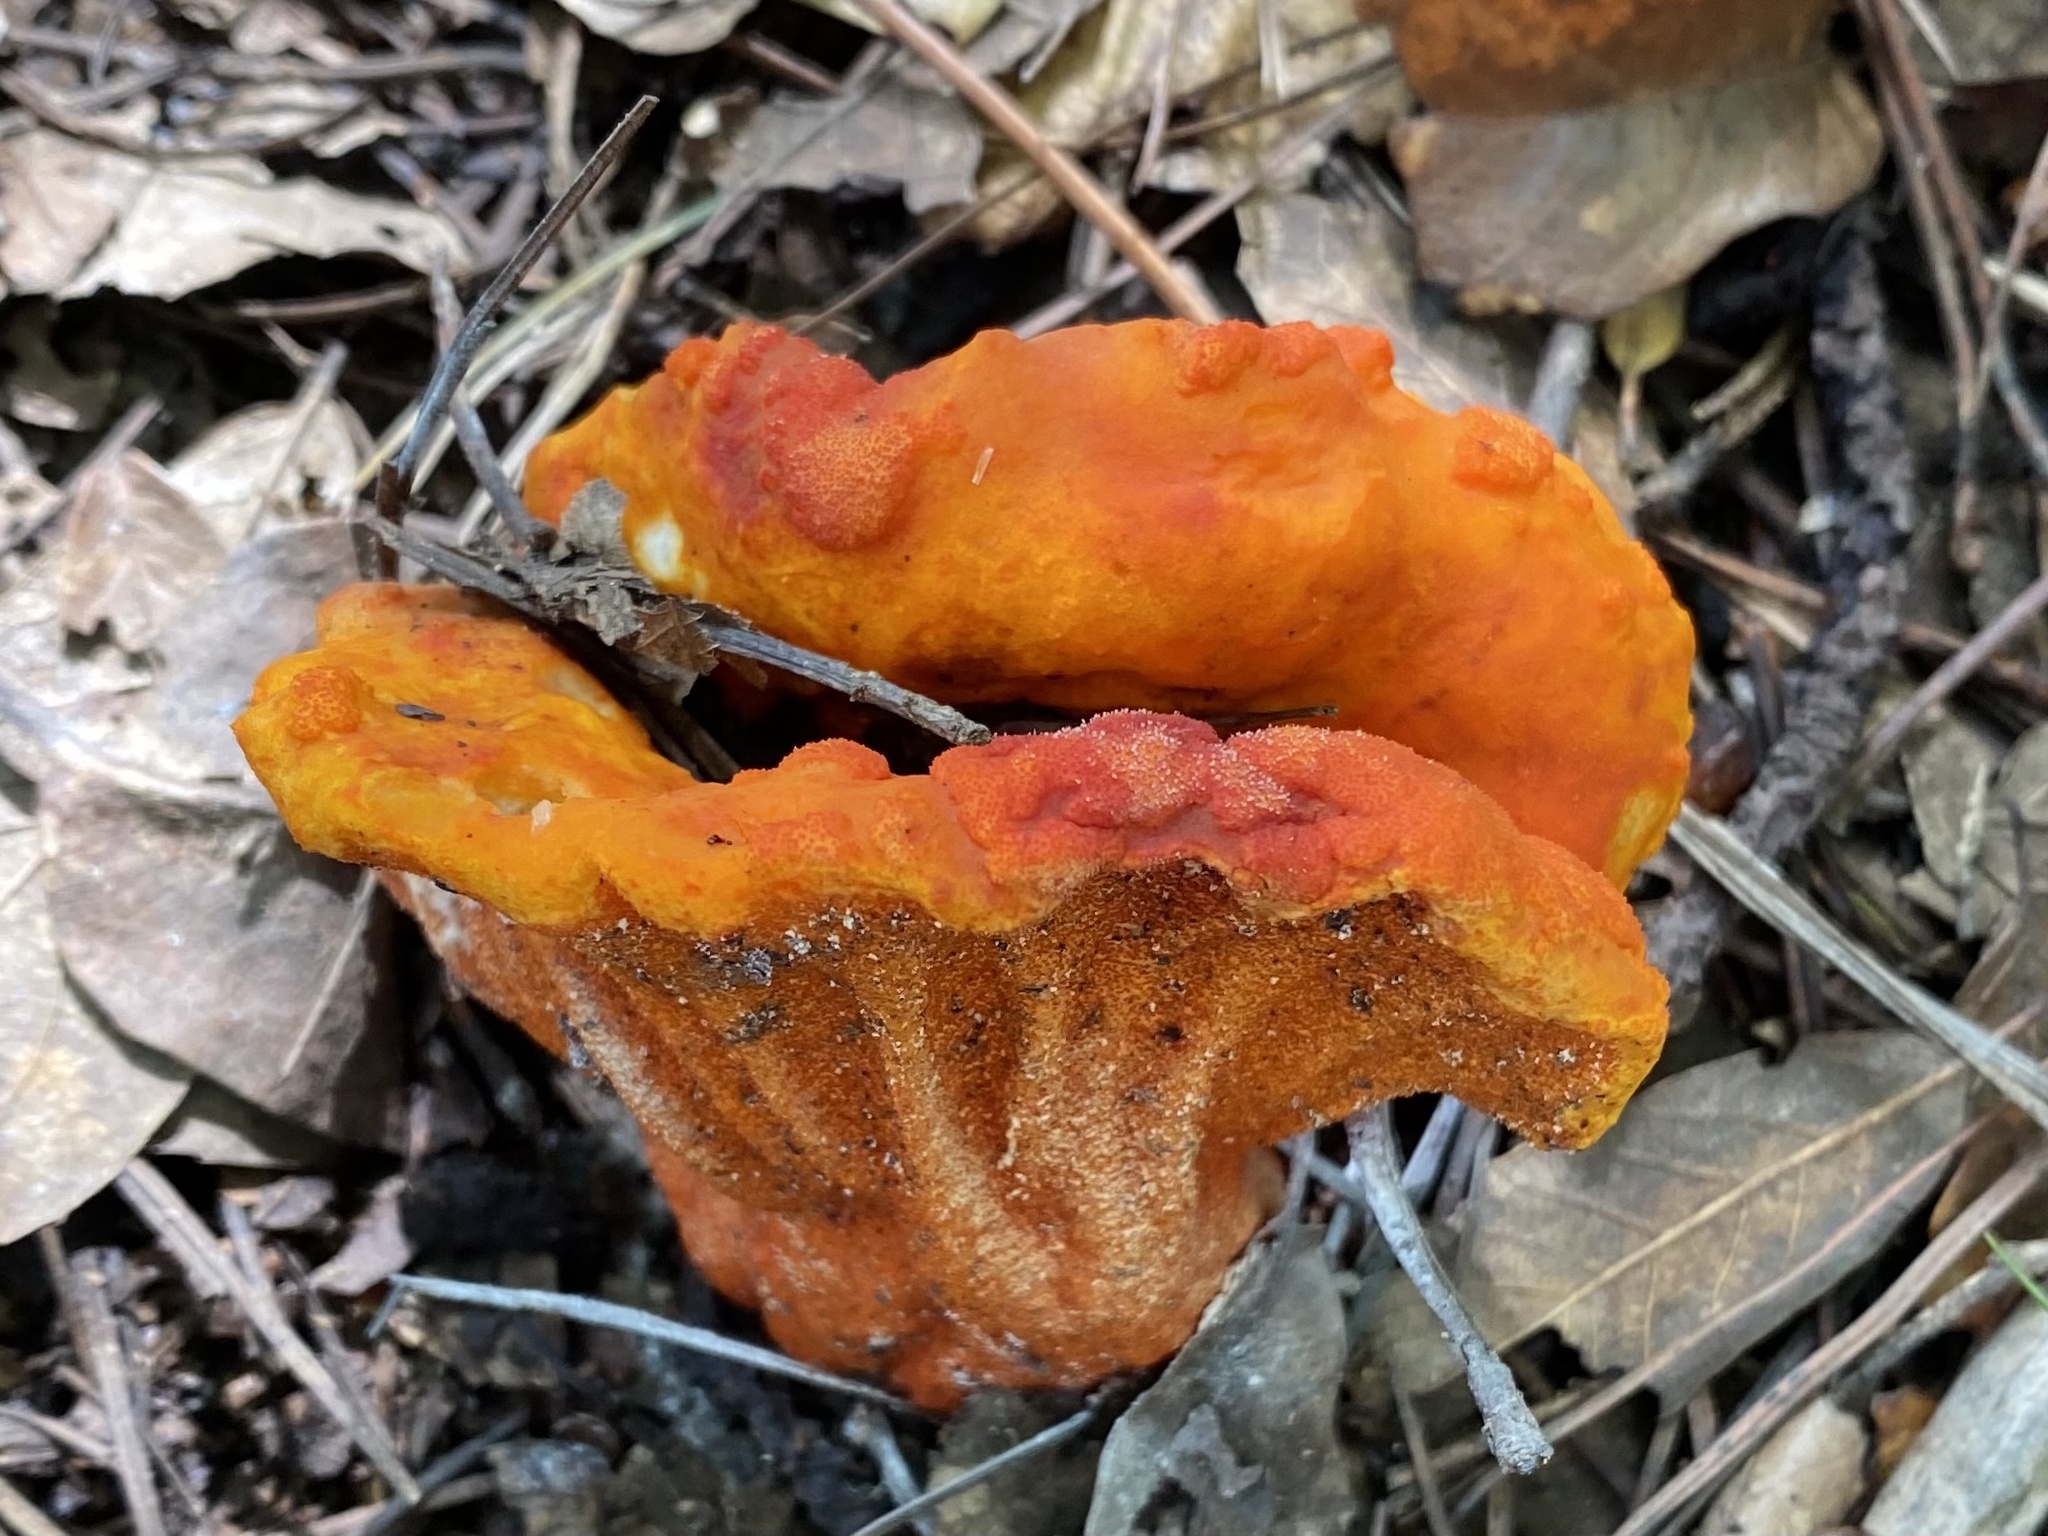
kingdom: Fungi
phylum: Ascomycota
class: Sordariomycetes
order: Hypocreales
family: Hypocreaceae
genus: Hypomyces
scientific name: Hypomyces lactifluorum
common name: Lobster mushroom
